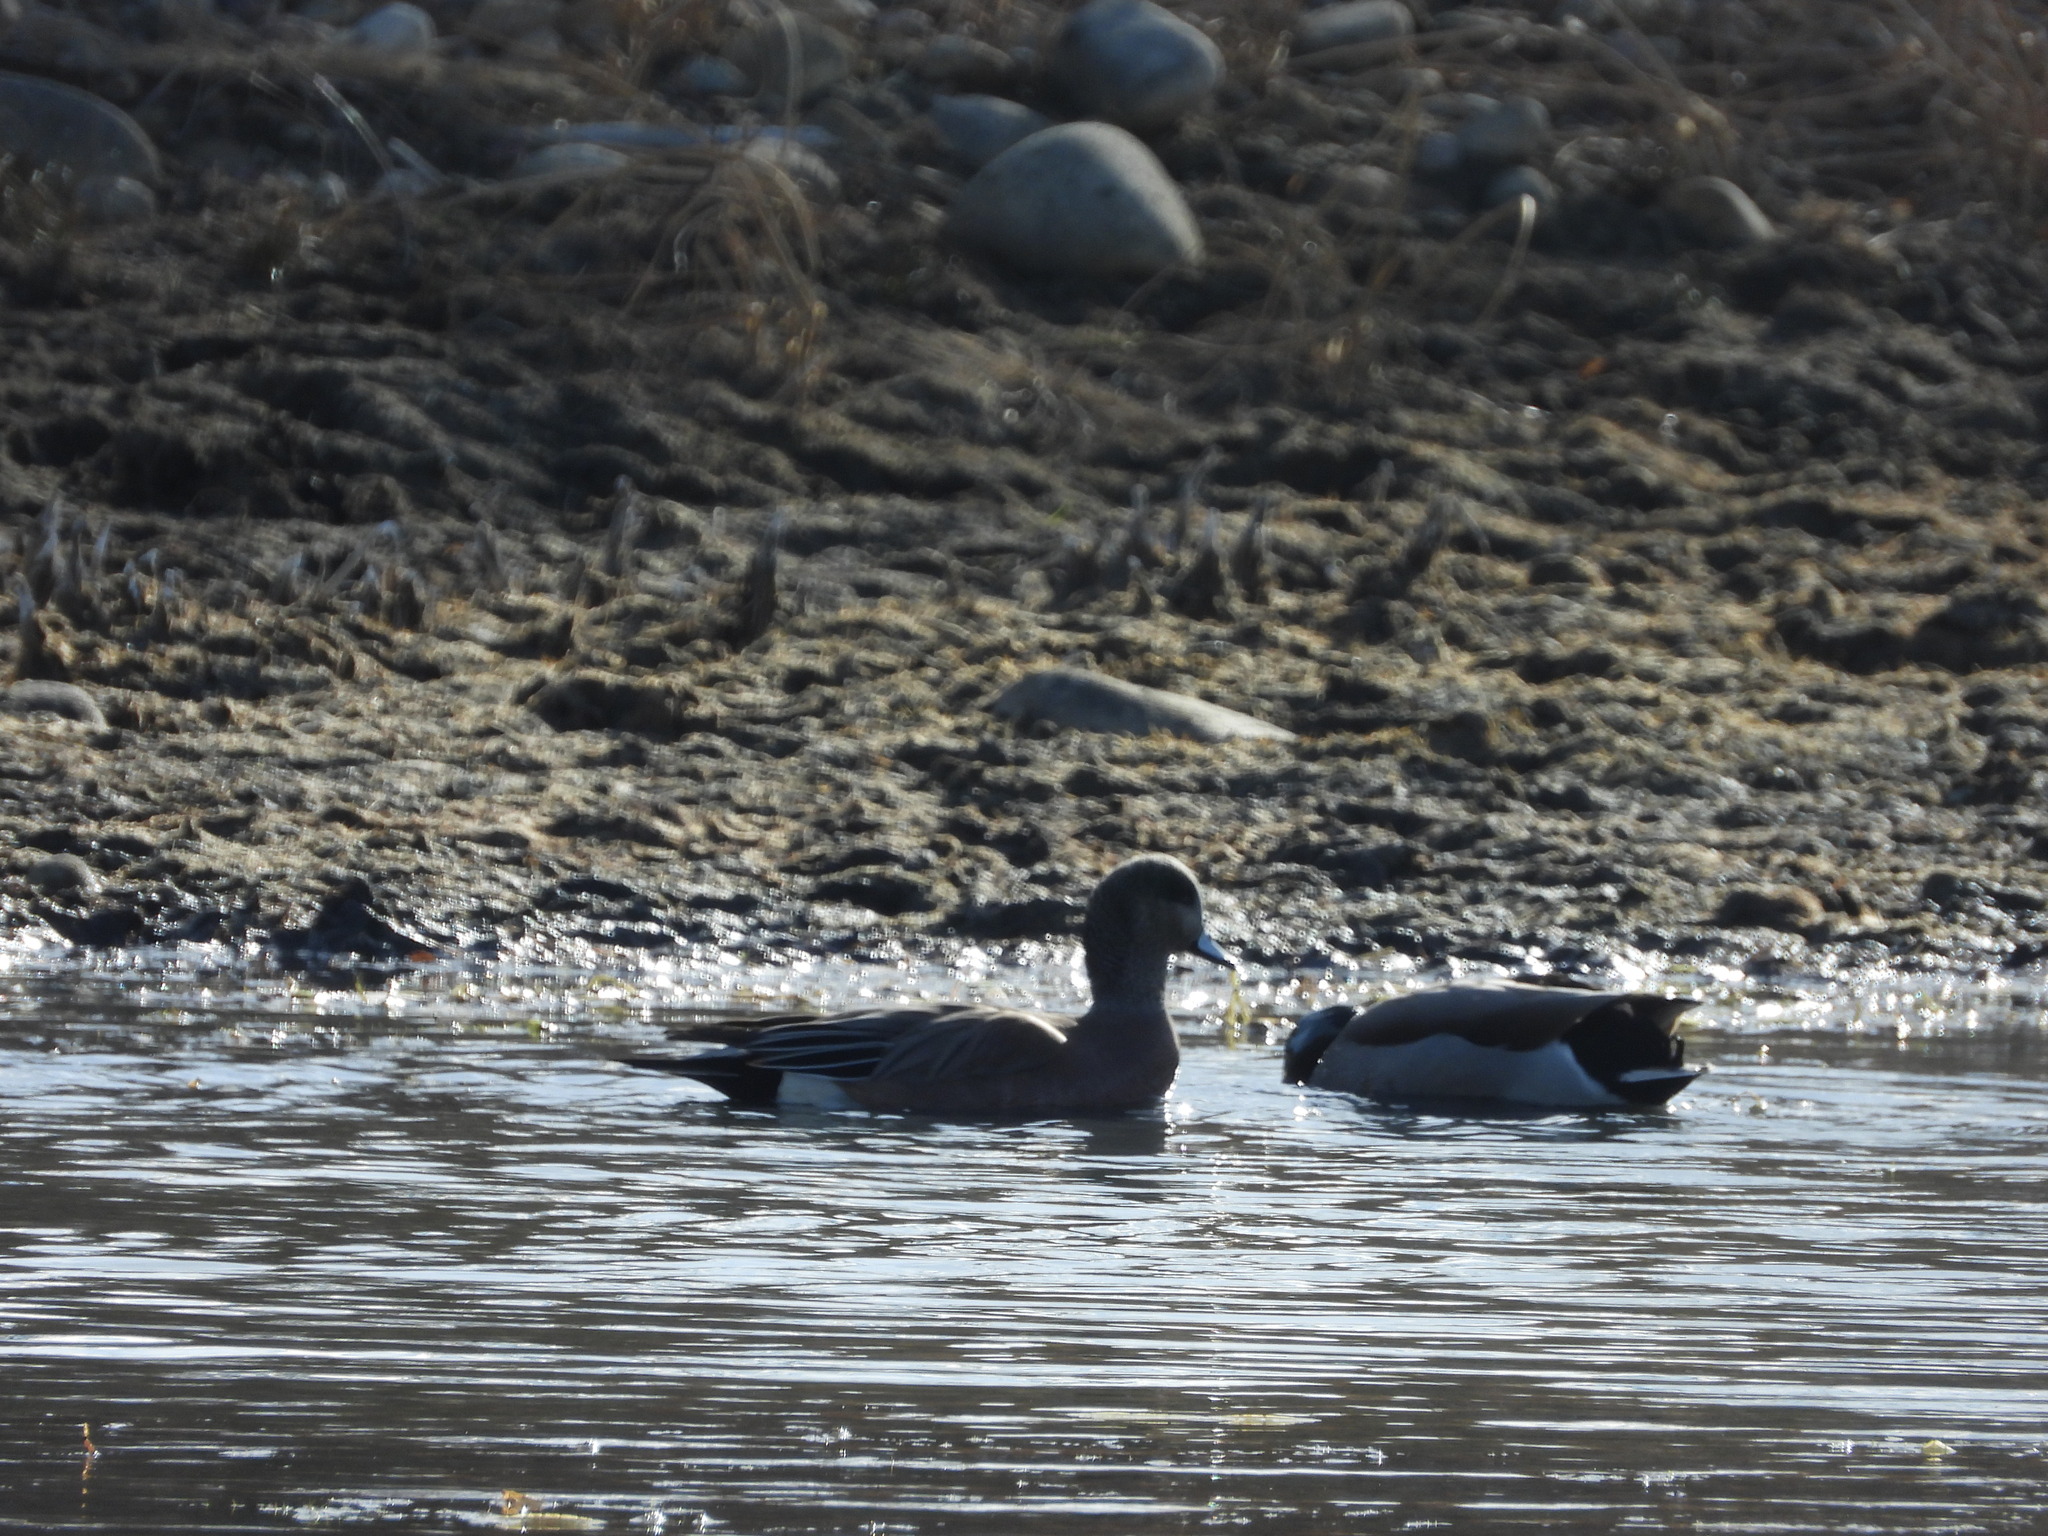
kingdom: Animalia
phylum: Chordata
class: Aves
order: Anseriformes
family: Anatidae
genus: Mareca
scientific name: Mareca americana
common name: American wigeon
